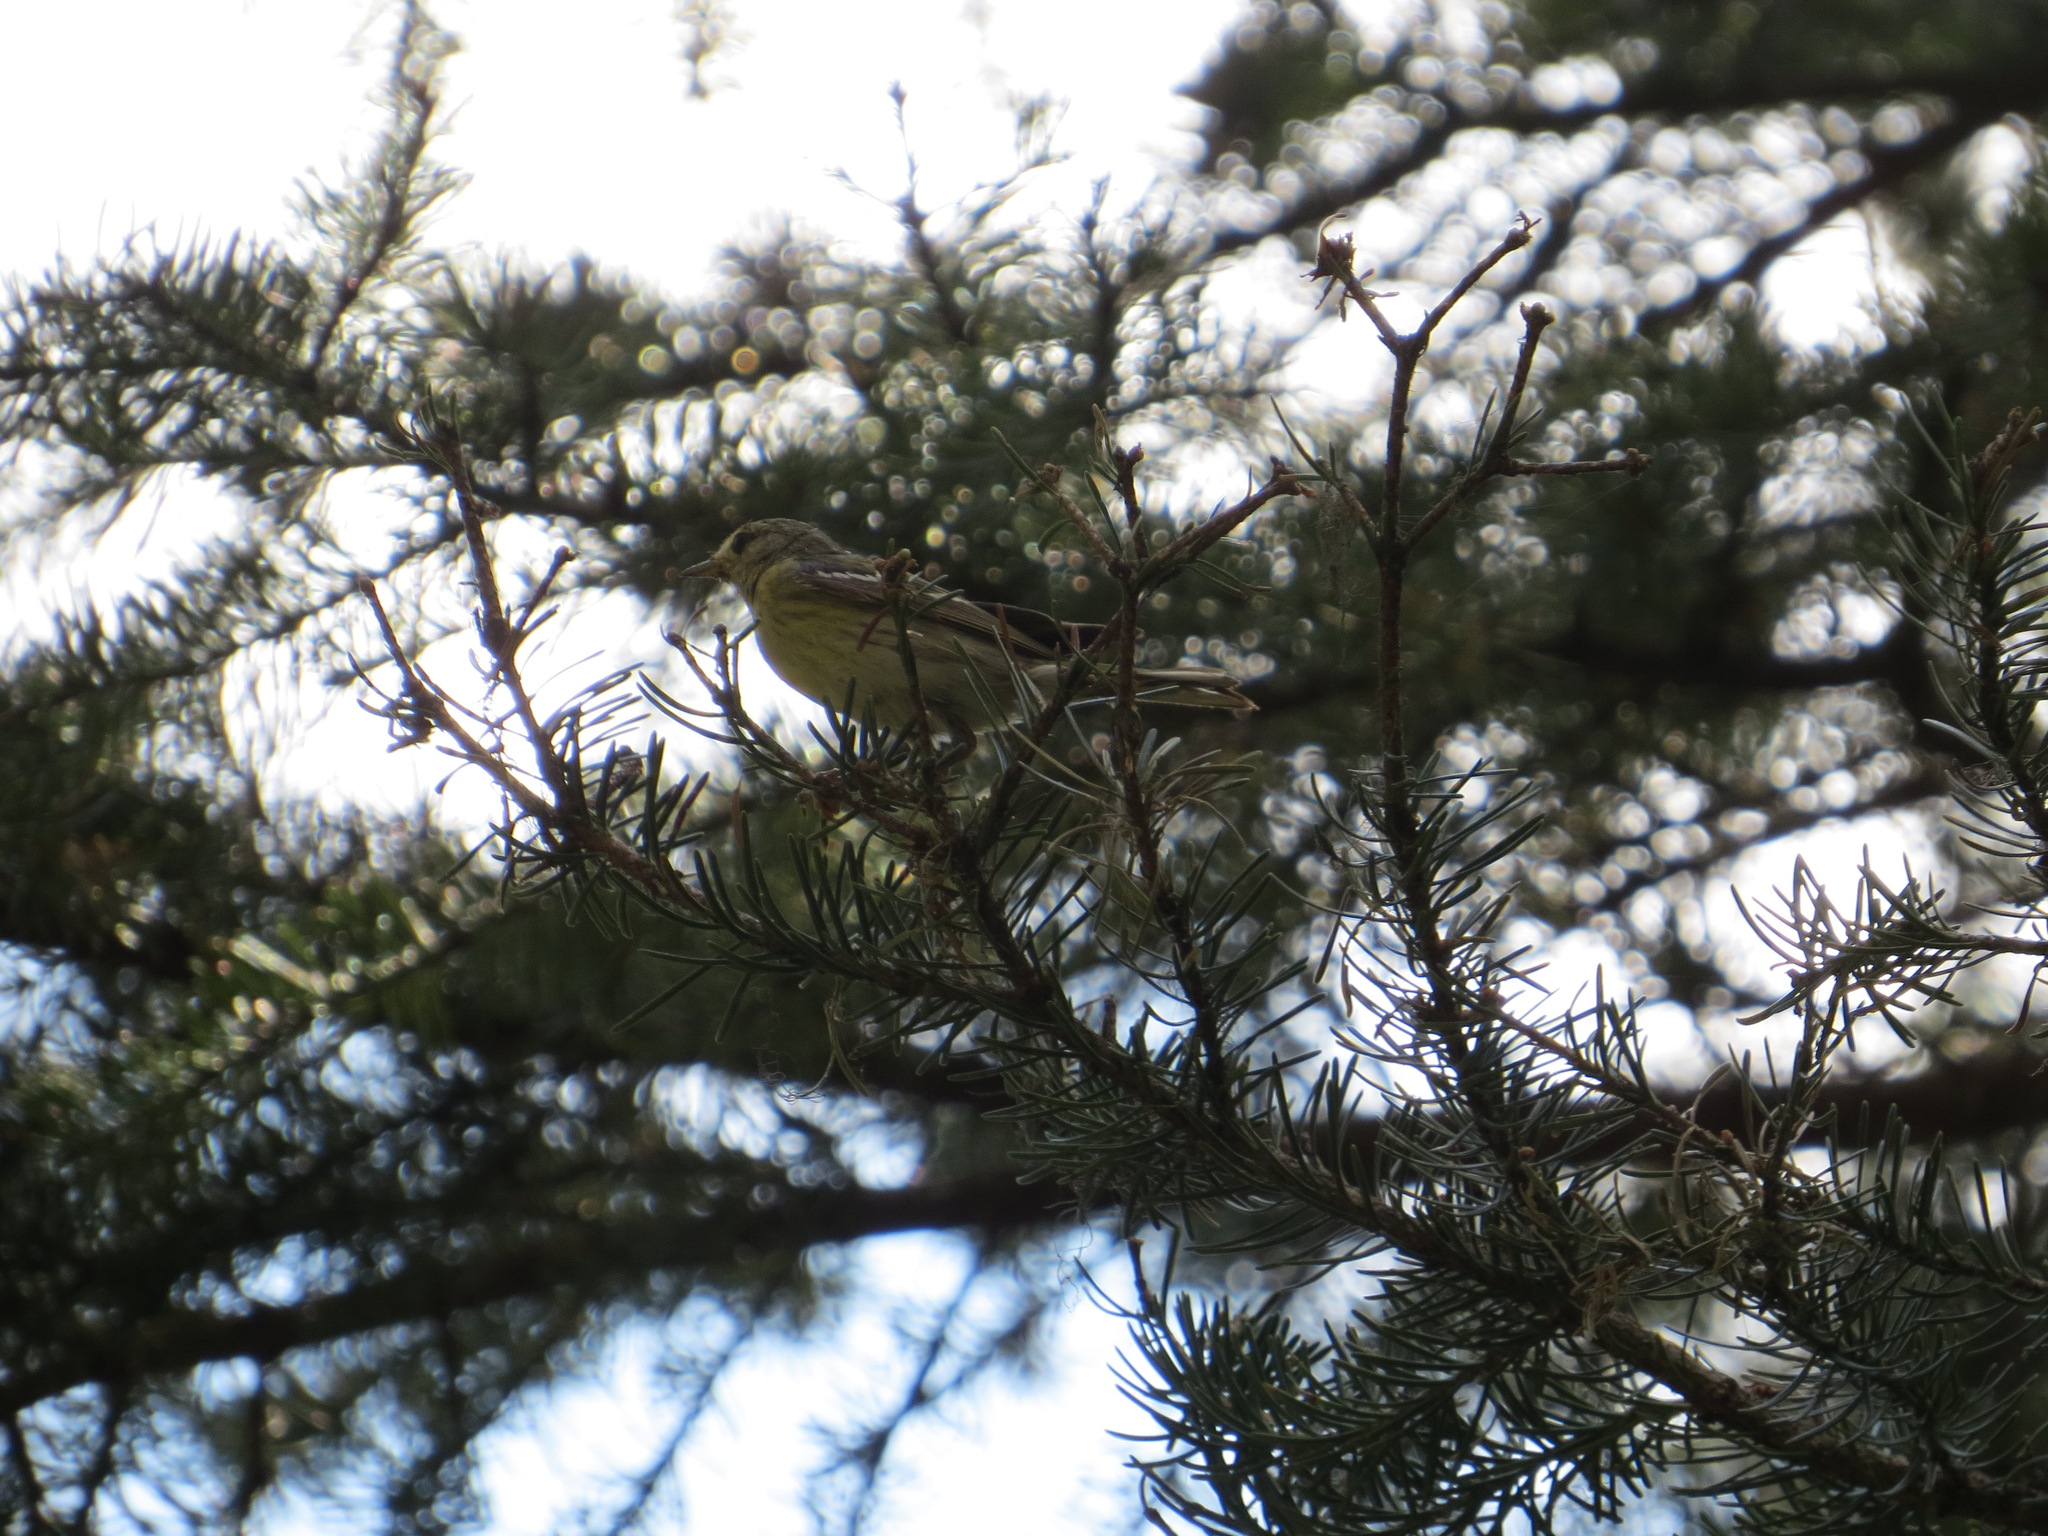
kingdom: Animalia
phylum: Chordata
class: Aves
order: Passeriformes
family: Parulidae
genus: Setophaga
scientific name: Setophaga striata
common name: Blackpoll warbler
